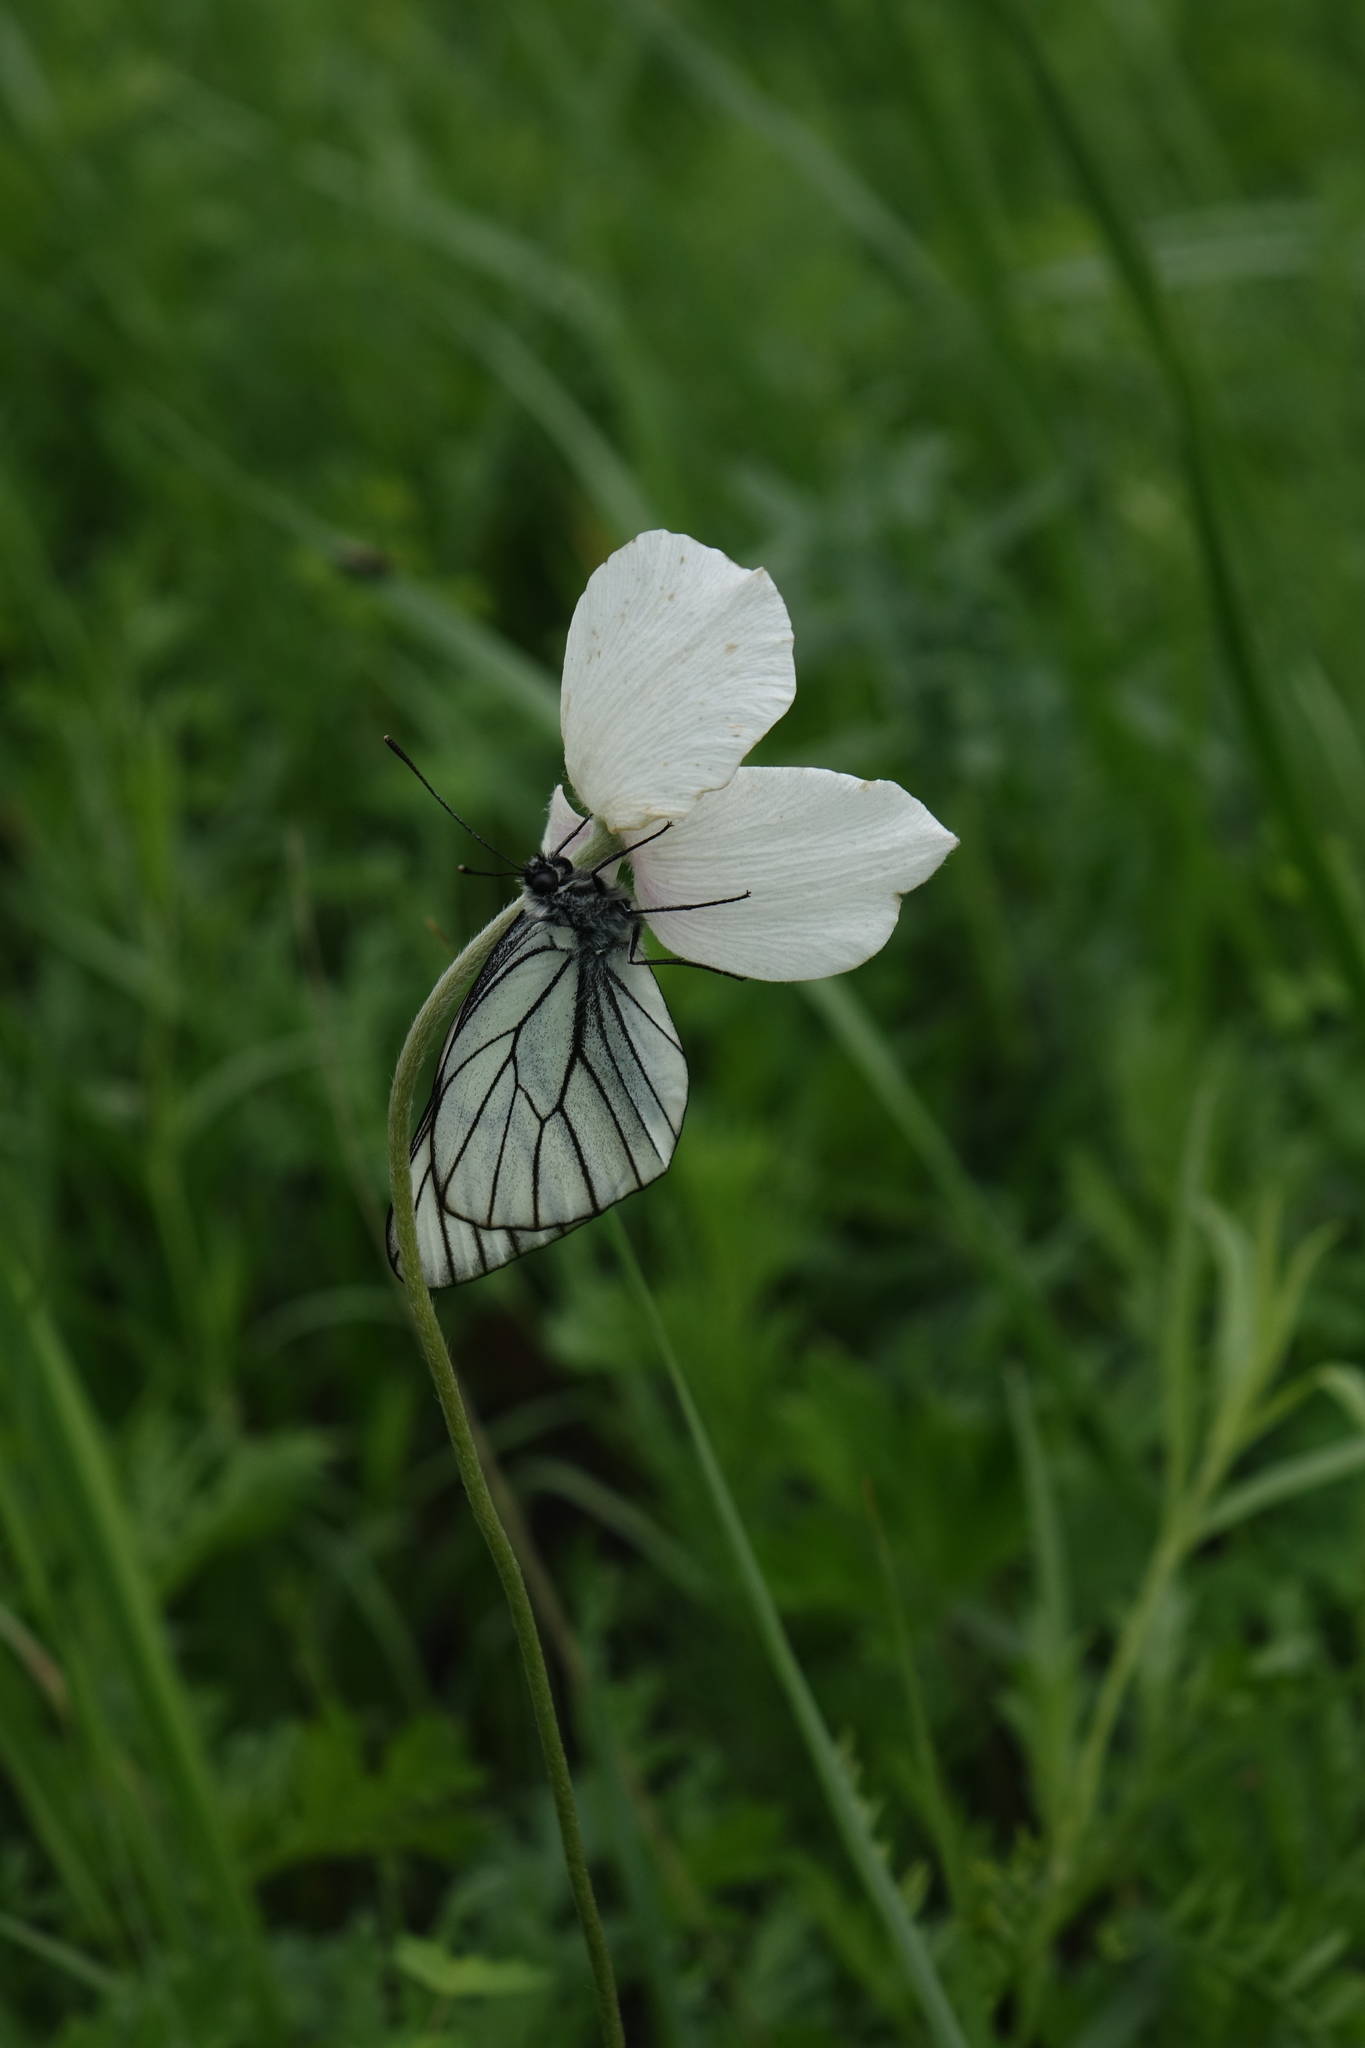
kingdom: Plantae
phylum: Tracheophyta
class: Magnoliopsida
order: Ranunculales
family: Ranunculaceae
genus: Anemone
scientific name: Anemone sylvestris
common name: Snowdrop anemone
